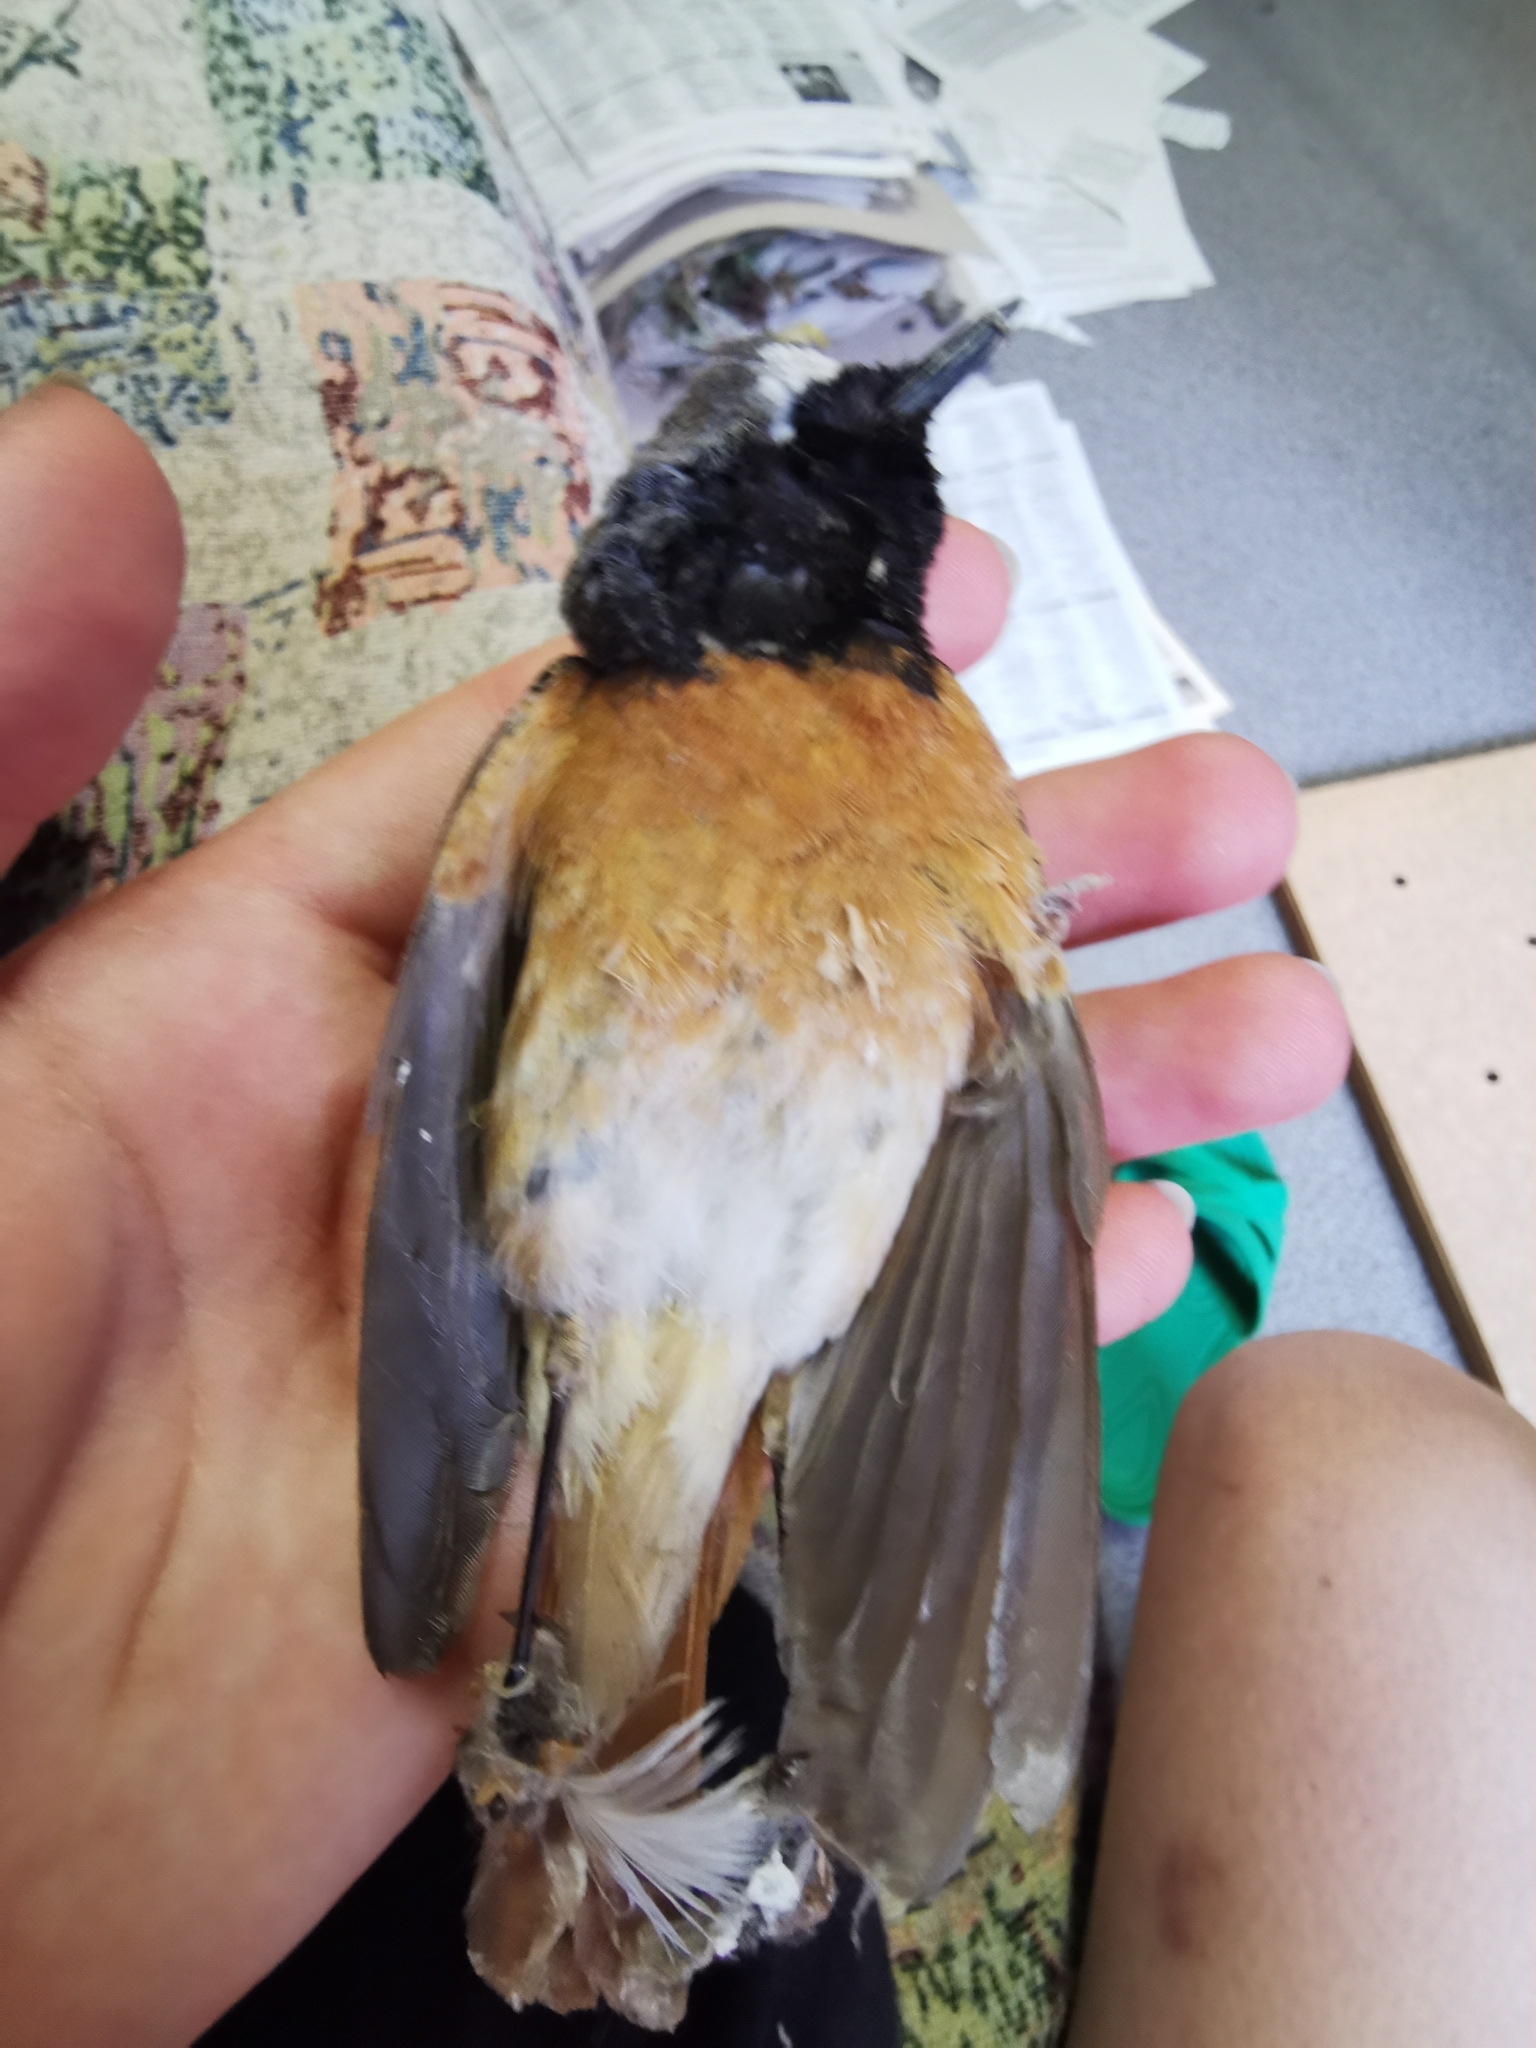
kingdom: Animalia
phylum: Chordata
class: Aves
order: Passeriformes
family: Muscicapidae
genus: Phoenicurus
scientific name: Phoenicurus phoenicurus
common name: Common redstart
